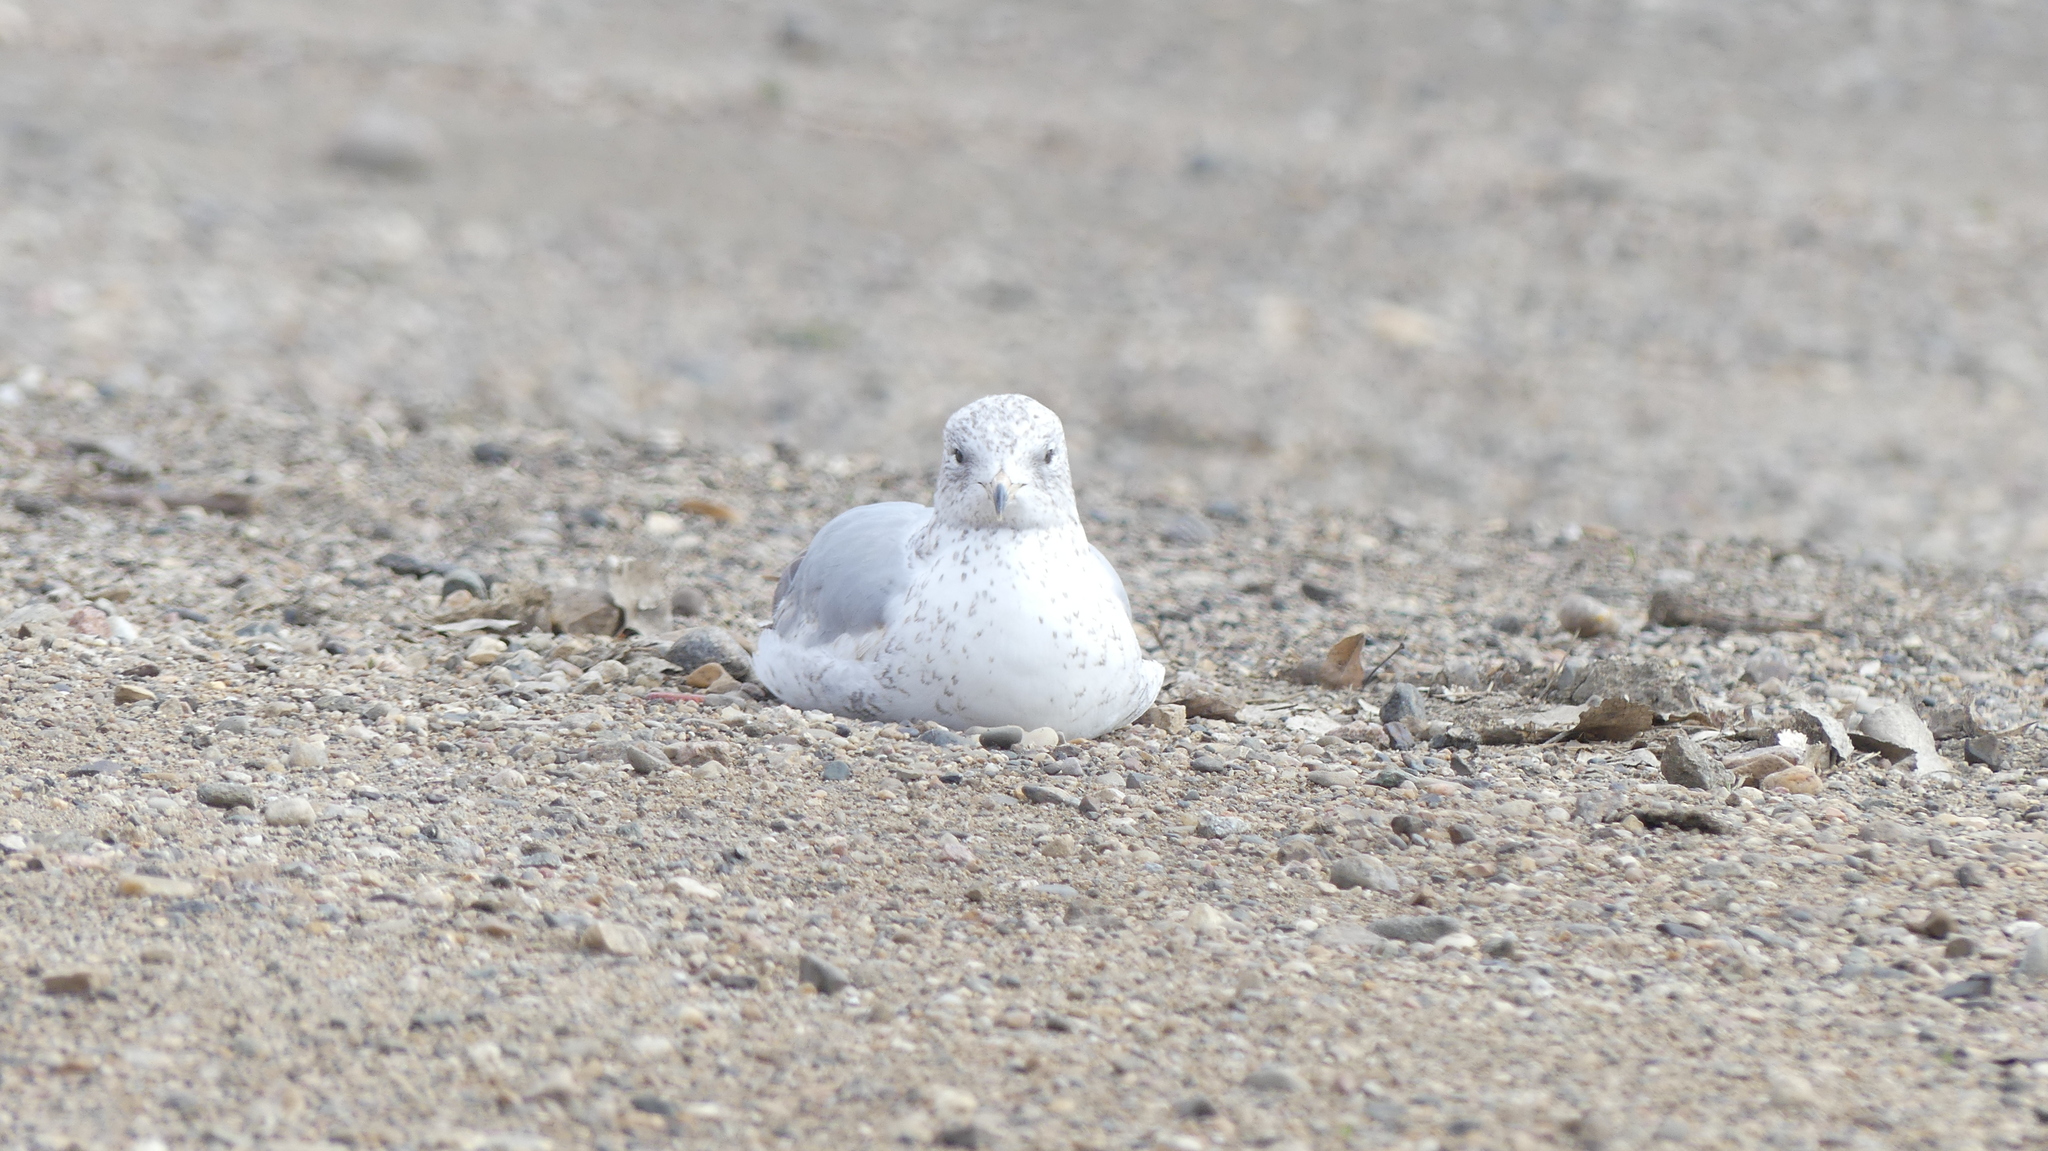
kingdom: Animalia
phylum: Chordata
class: Aves
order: Charadriiformes
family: Laridae
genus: Larus
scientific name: Larus delawarensis
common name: Ring-billed gull
